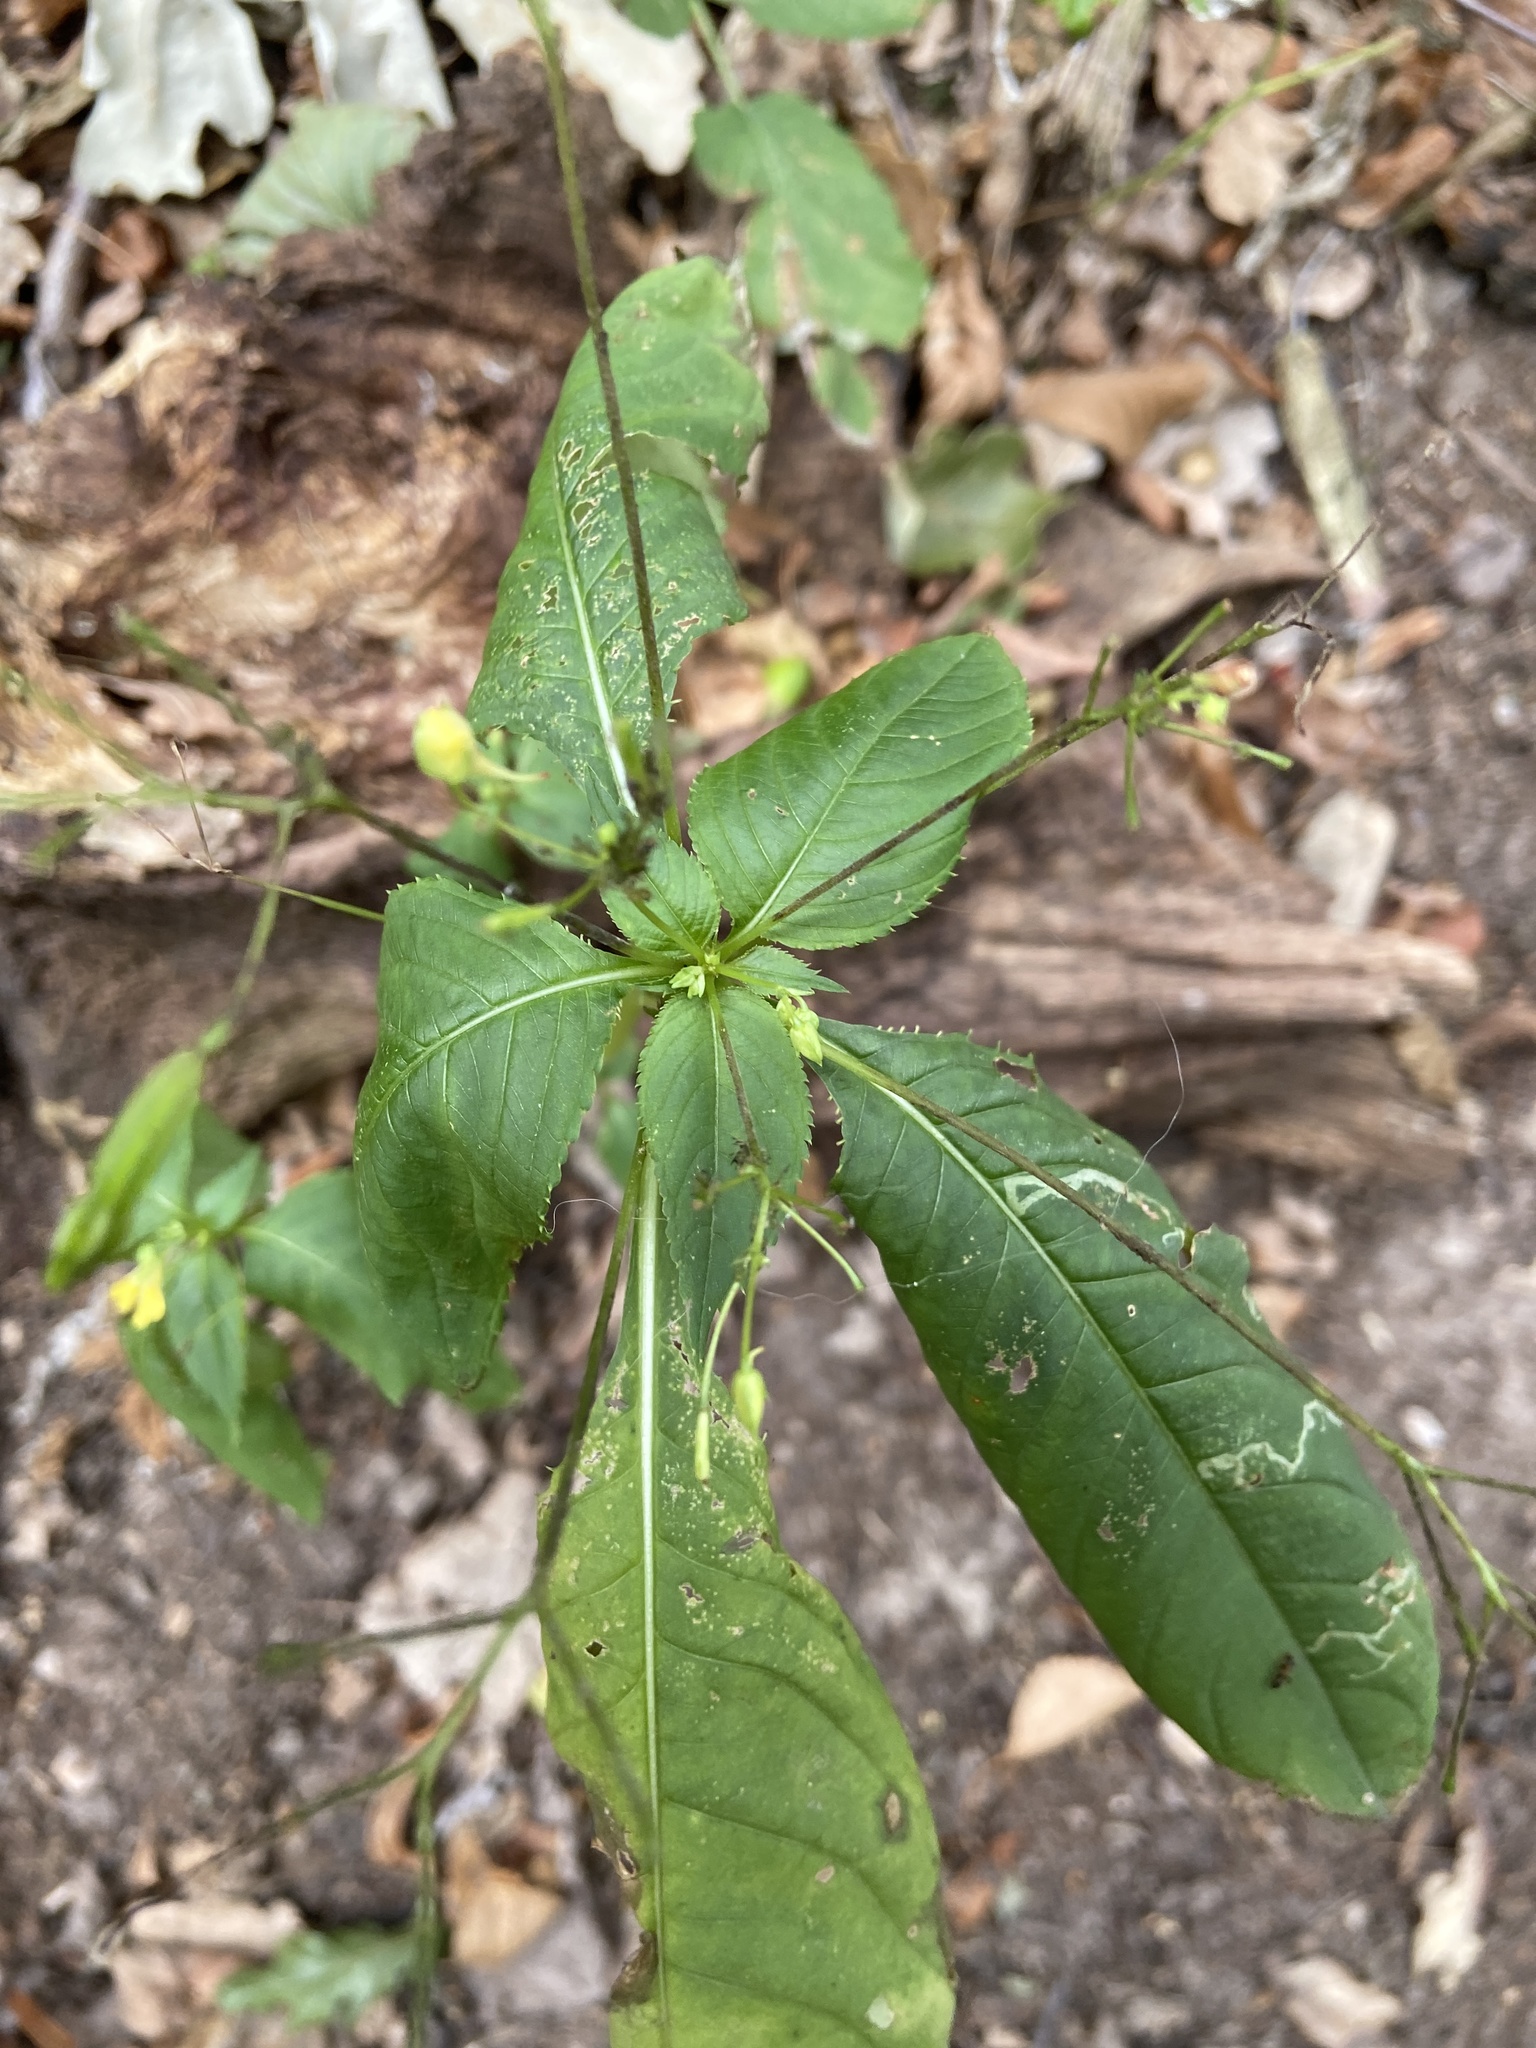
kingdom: Plantae
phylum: Tracheophyta
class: Magnoliopsida
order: Ericales
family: Balsaminaceae
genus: Impatiens
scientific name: Impatiens parviflora
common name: Small balsam
